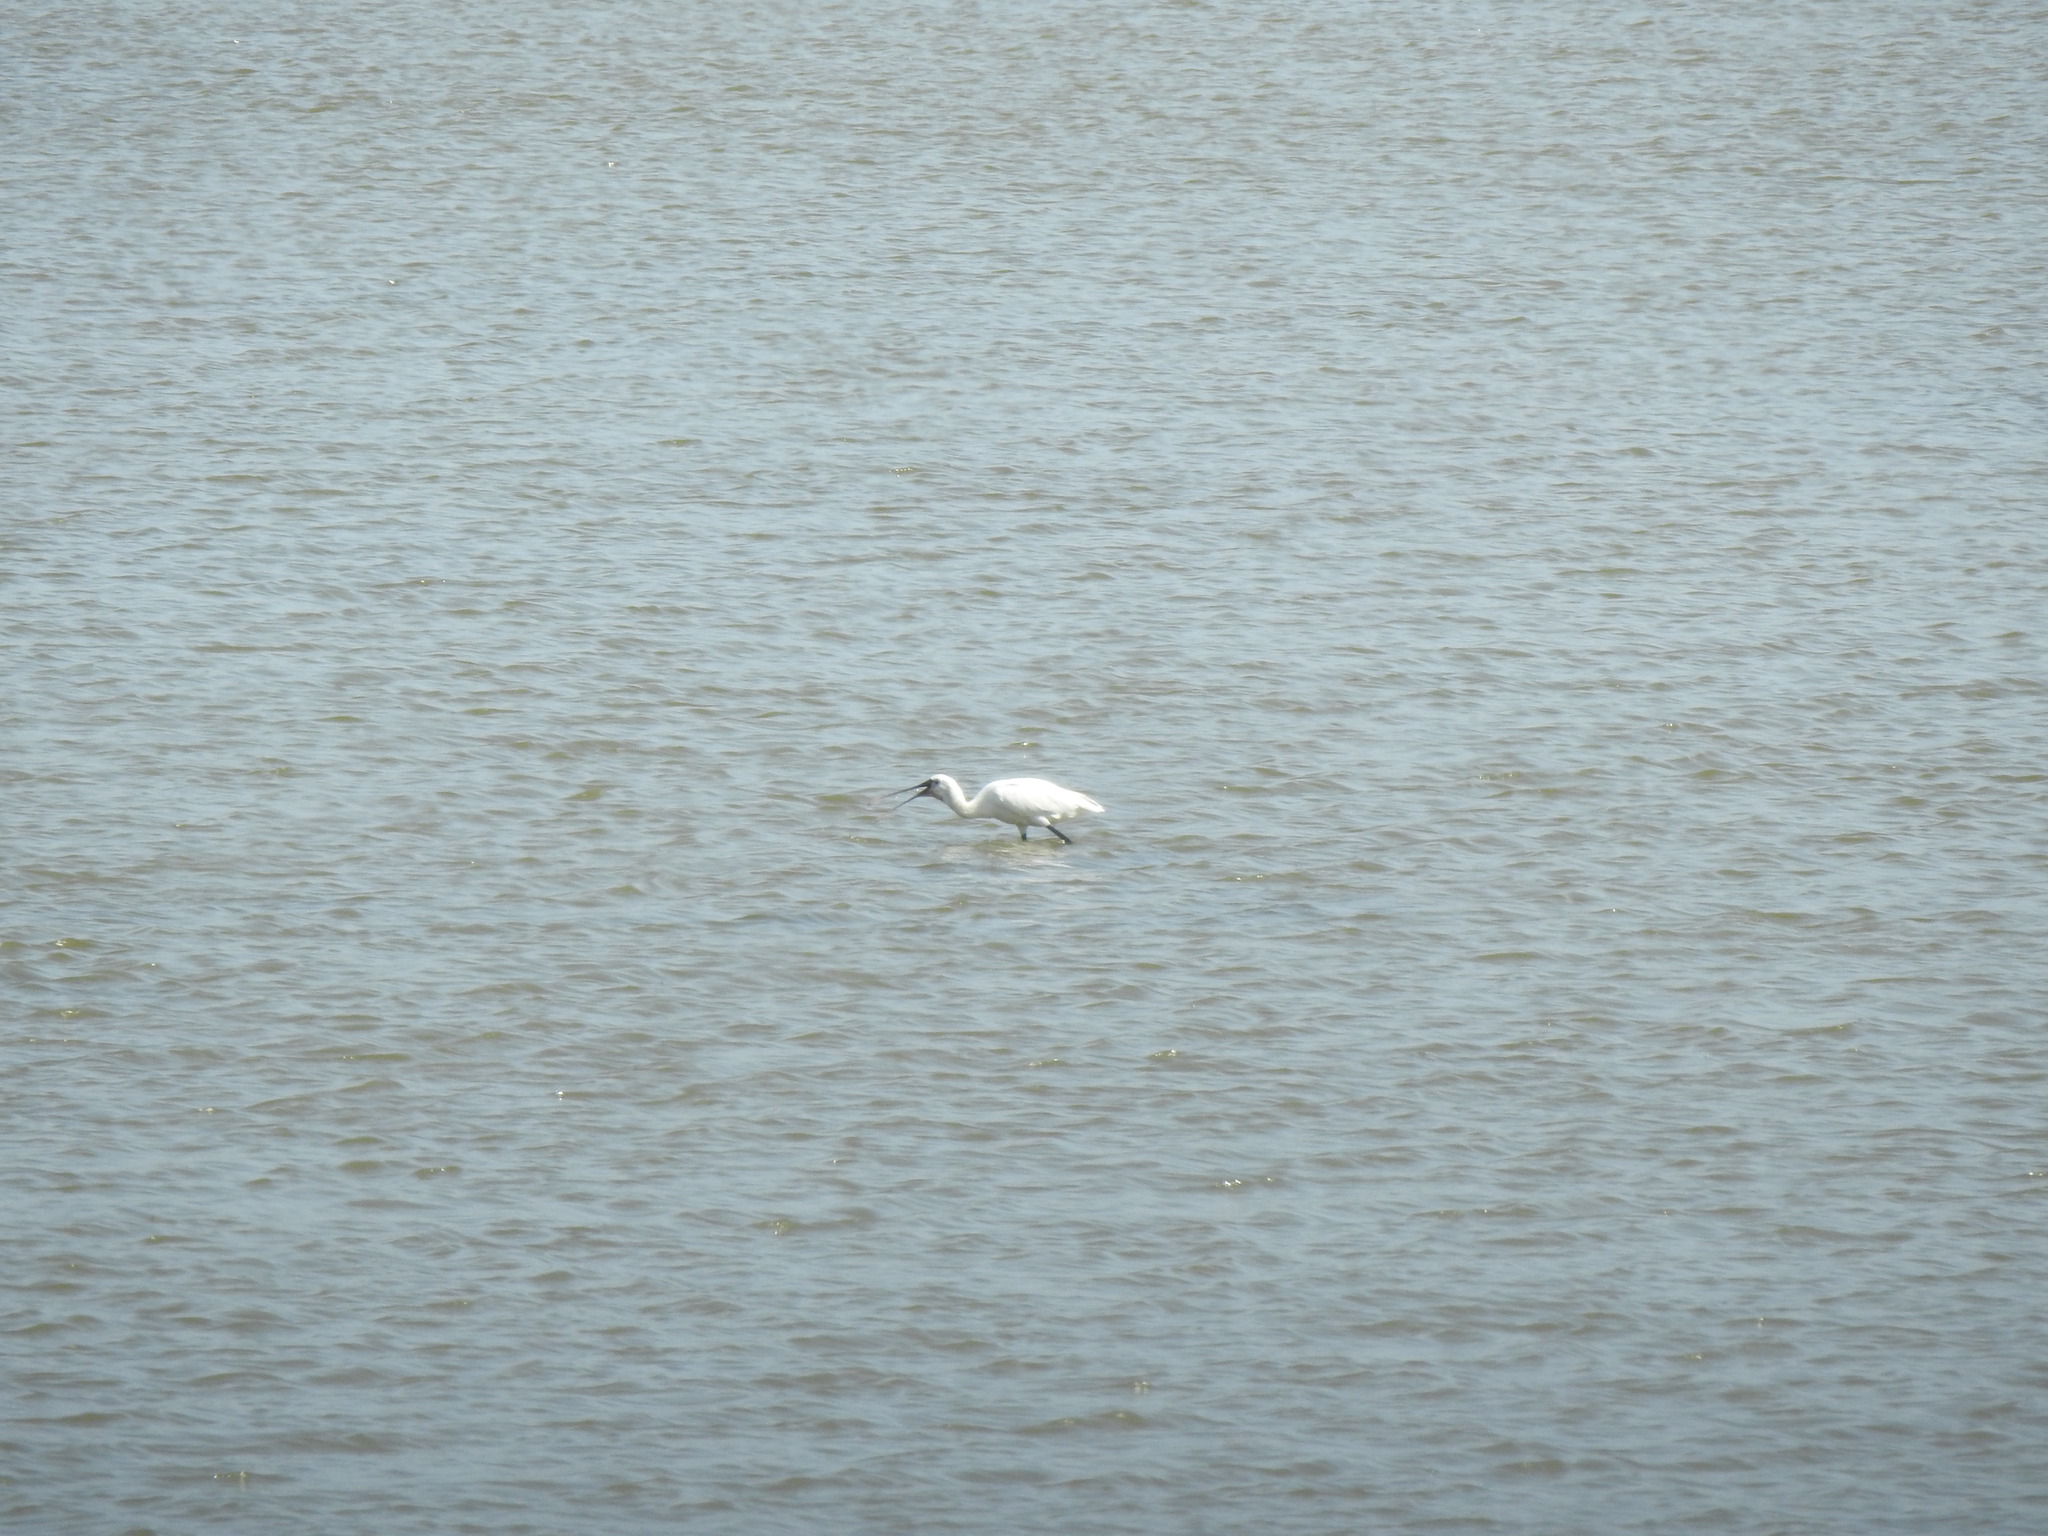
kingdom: Animalia
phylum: Chordata
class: Aves
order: Pelecaniformes
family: Threskiornithidae
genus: Platalea
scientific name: Platalea leucorodia
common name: Eurasian spoonbill
